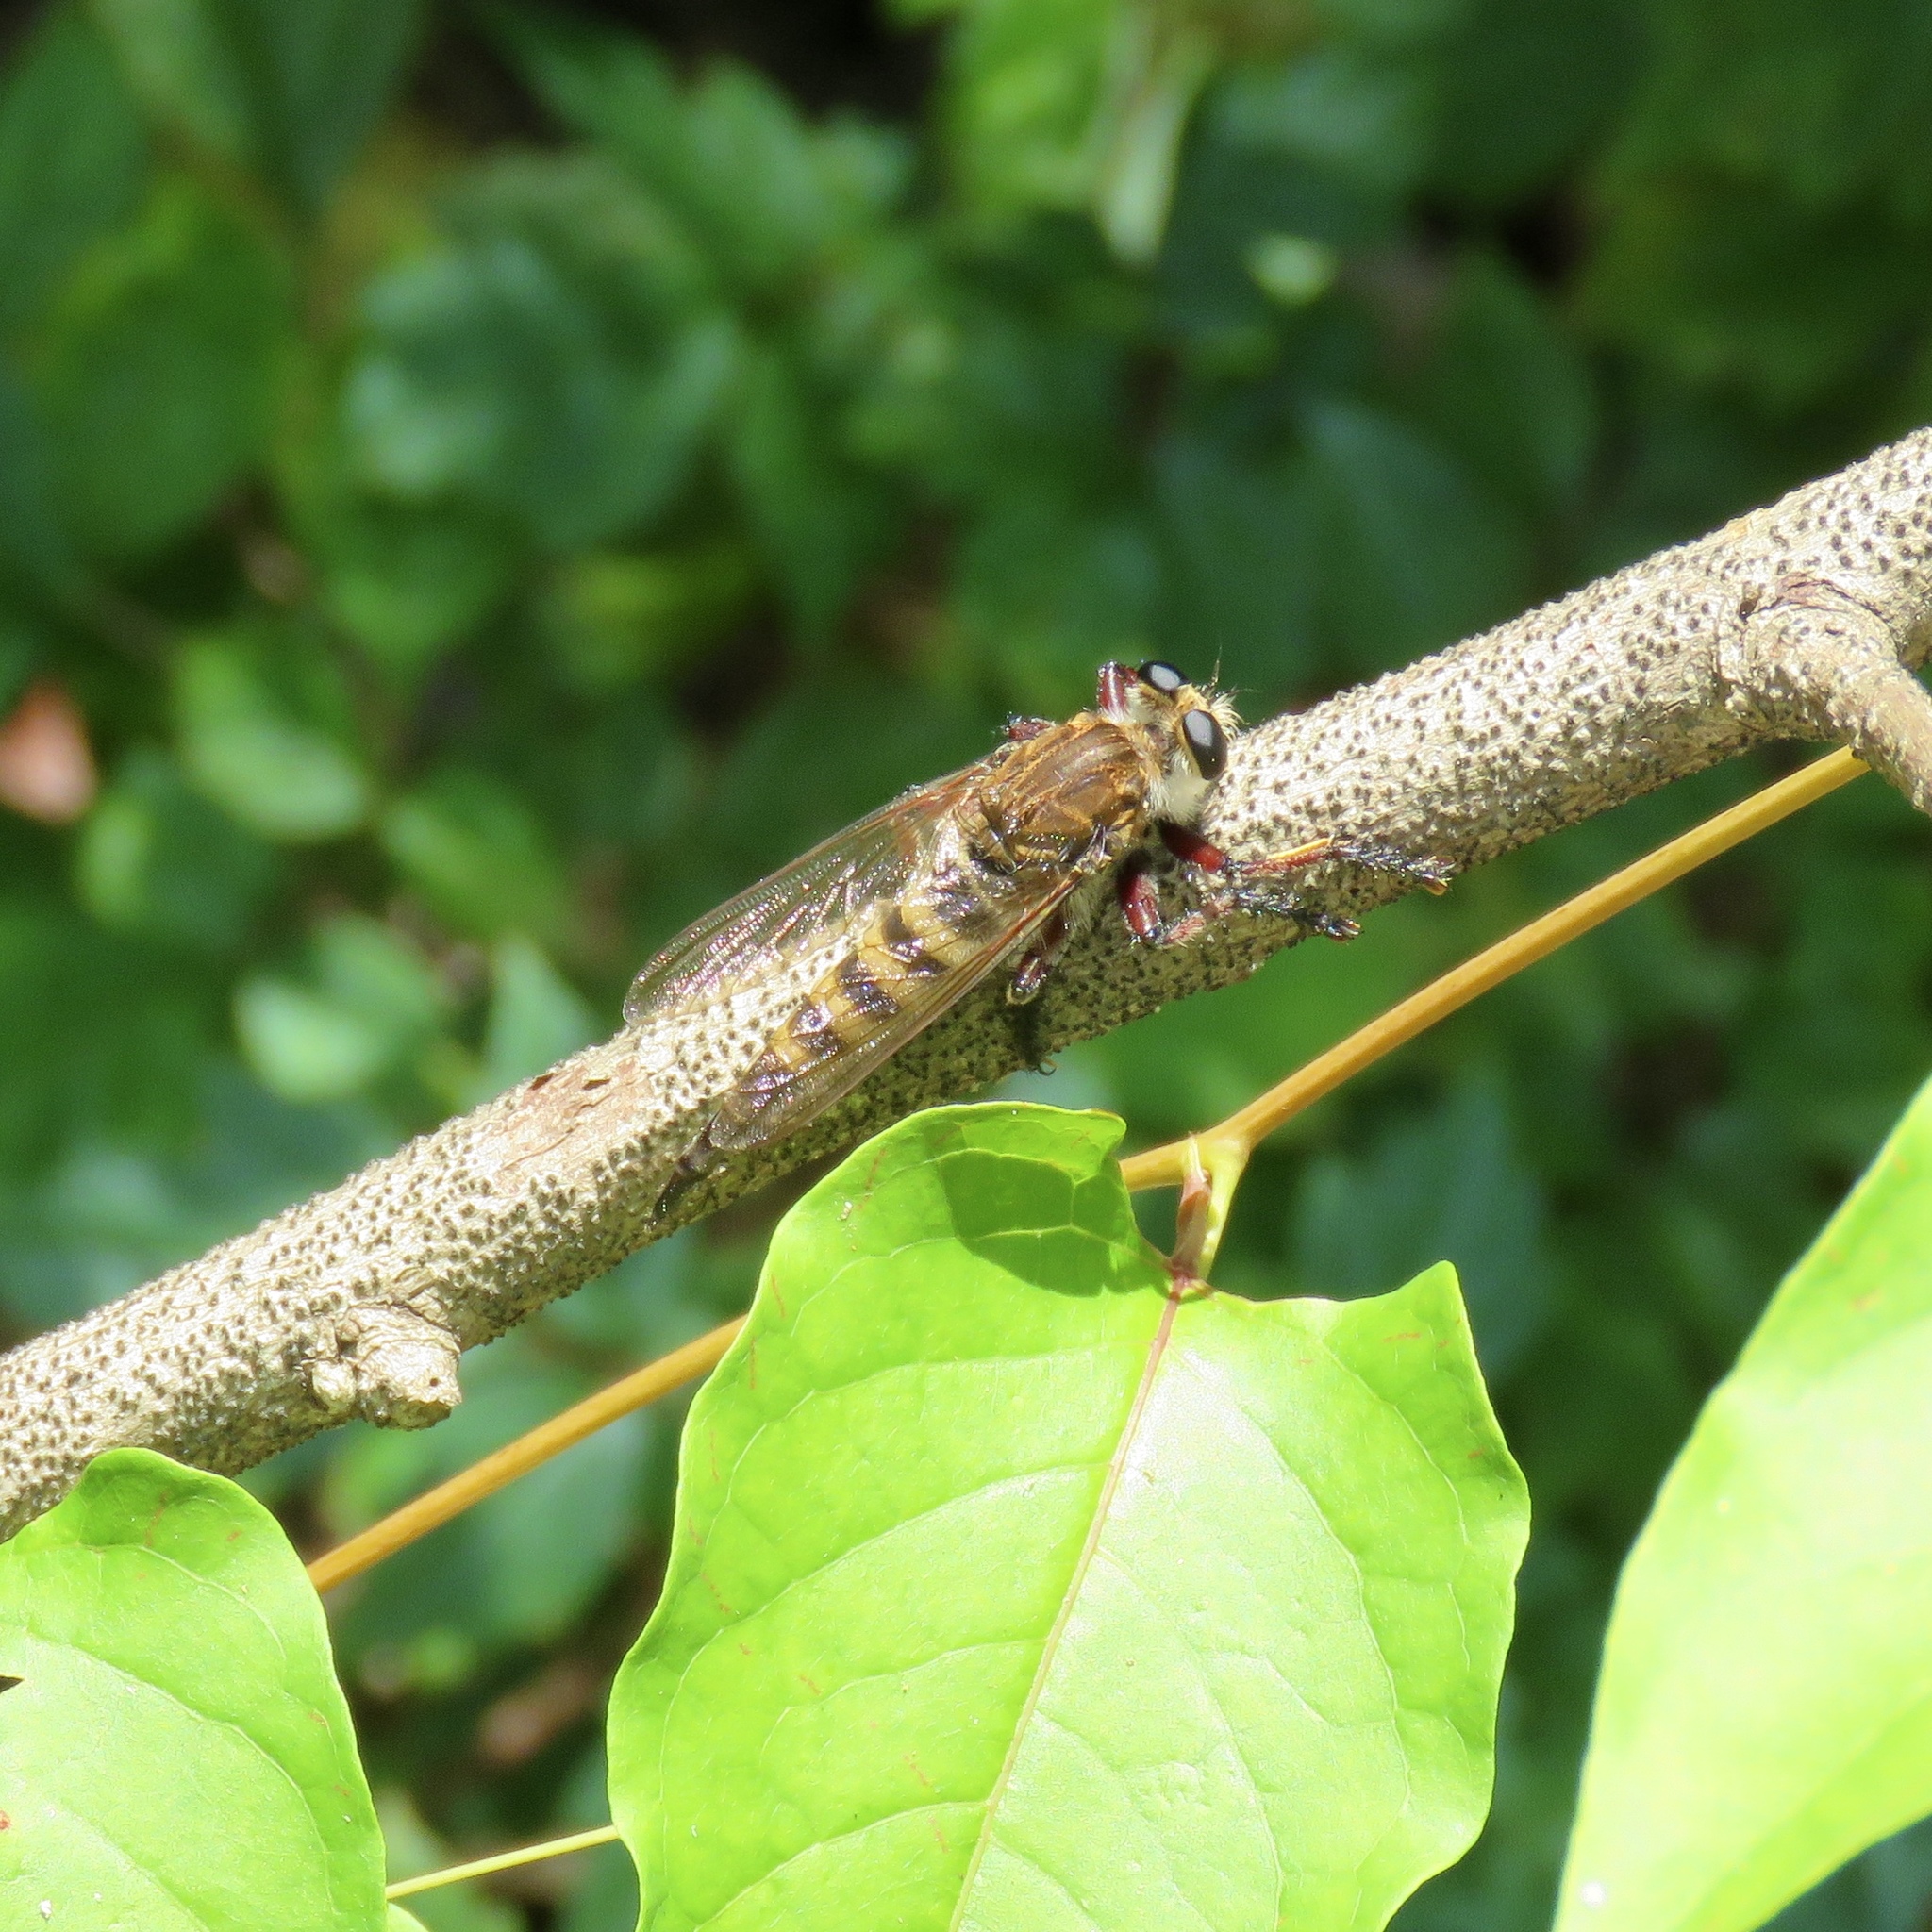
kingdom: Animalia
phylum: Arthropoda
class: Insecta
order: Diptera
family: Asilidae
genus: Promachus
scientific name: Promachus hinei
